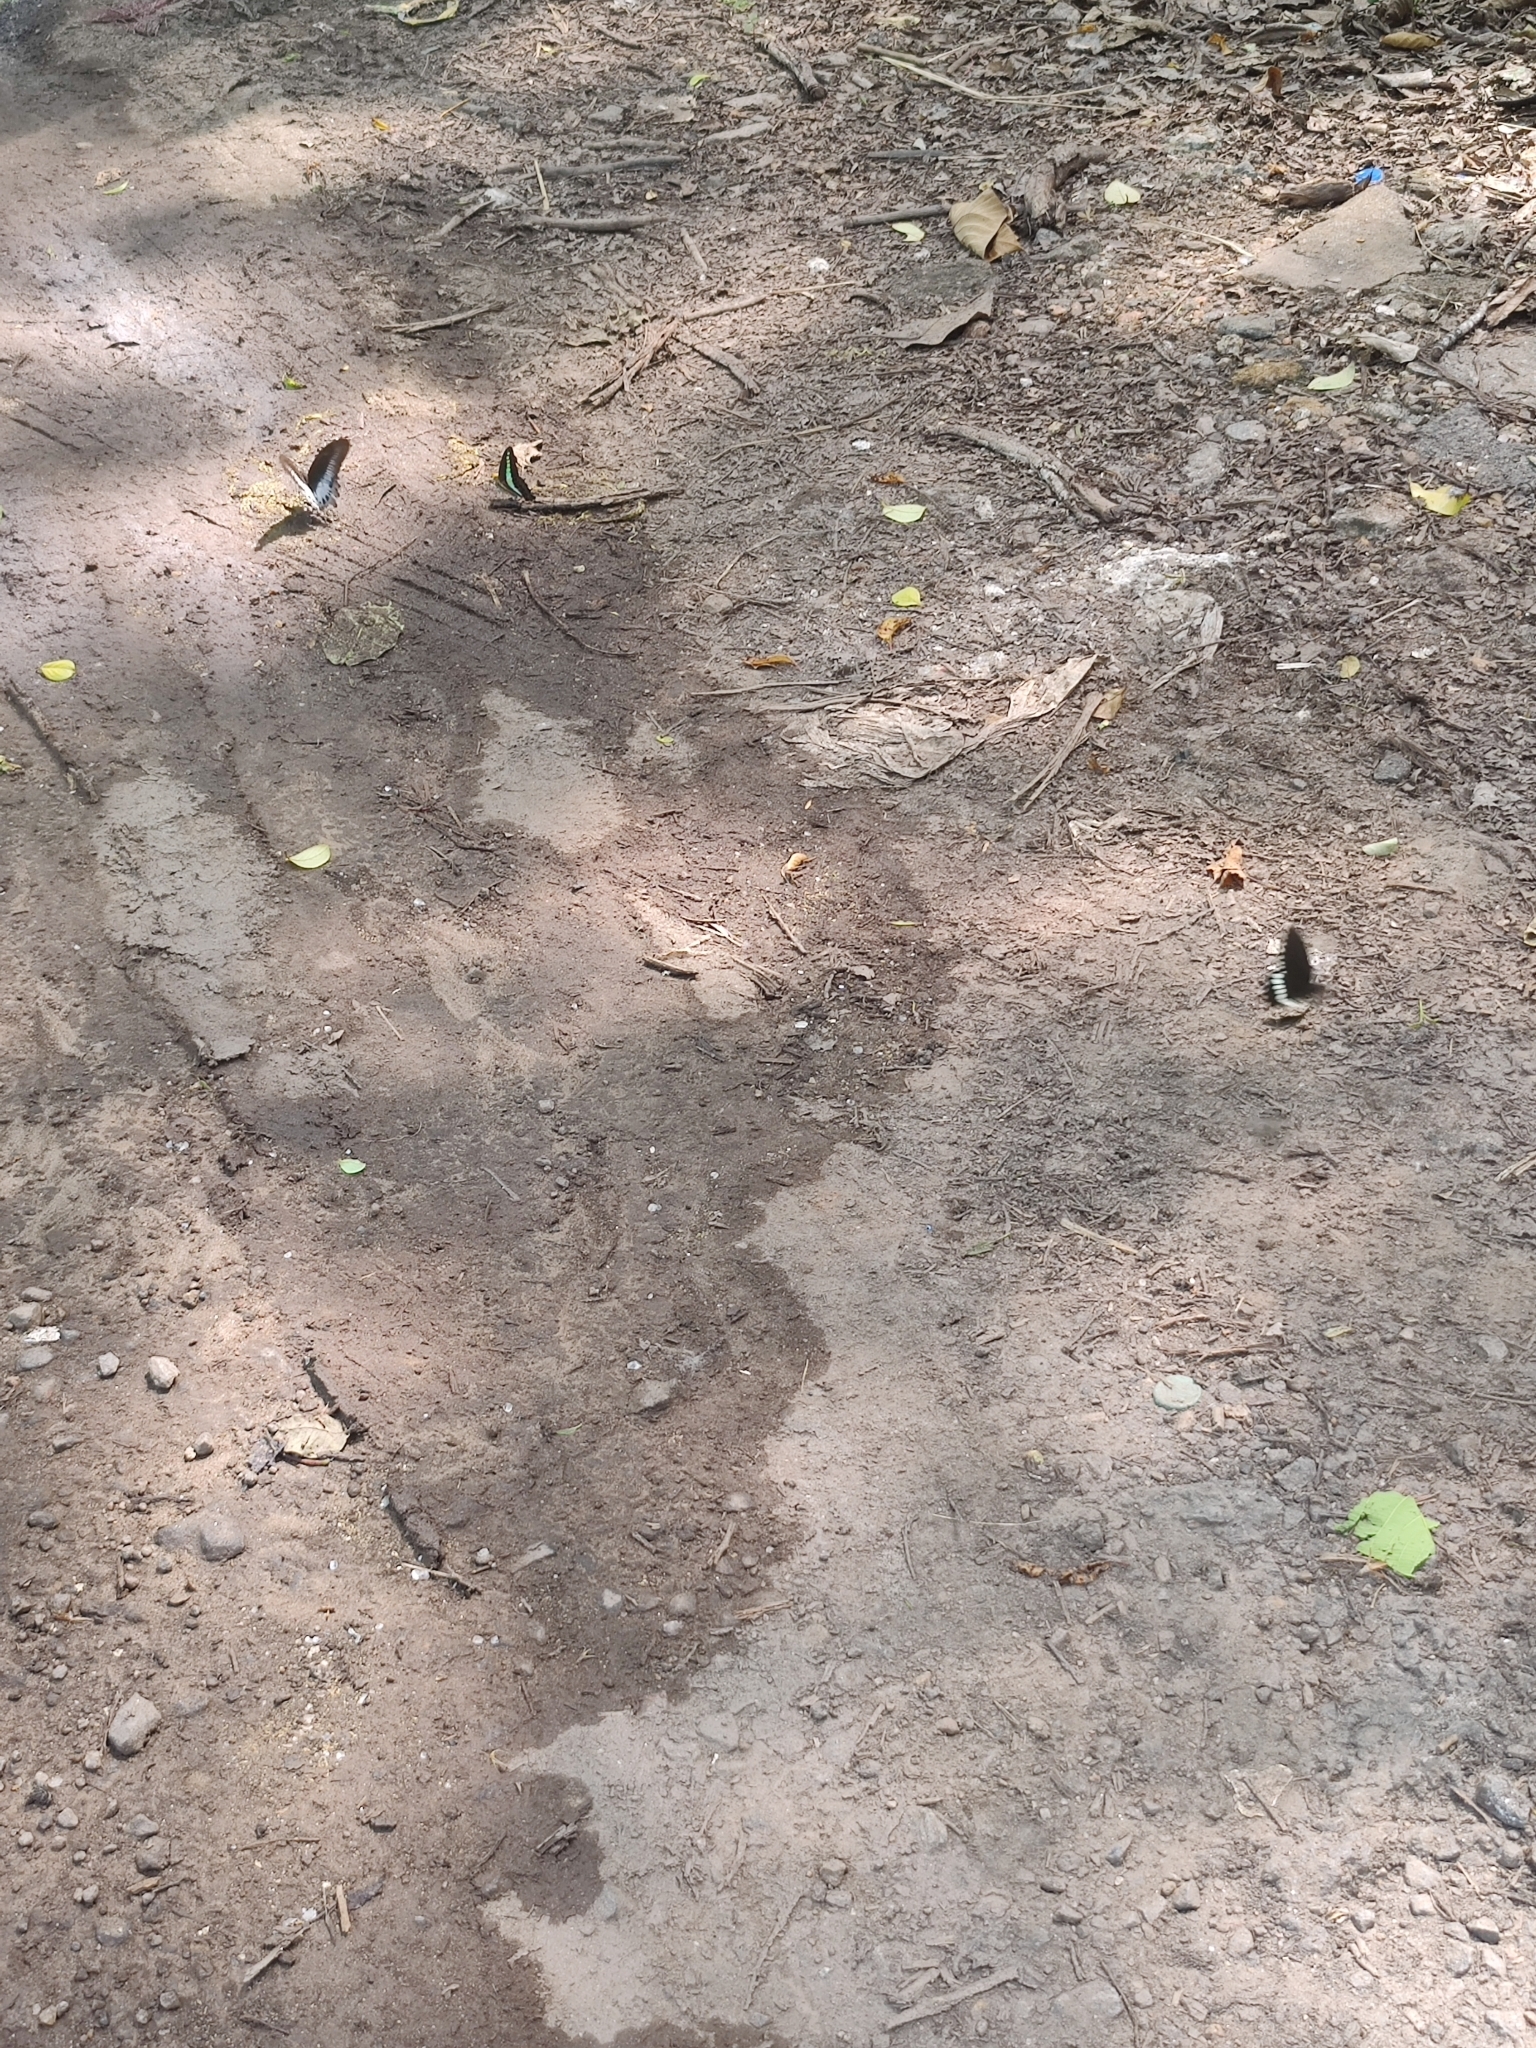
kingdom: Animalia
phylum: Arthropoda
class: Insecta
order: Lepidoptera
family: Papilionidae
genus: Graphium
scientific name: Graphium
